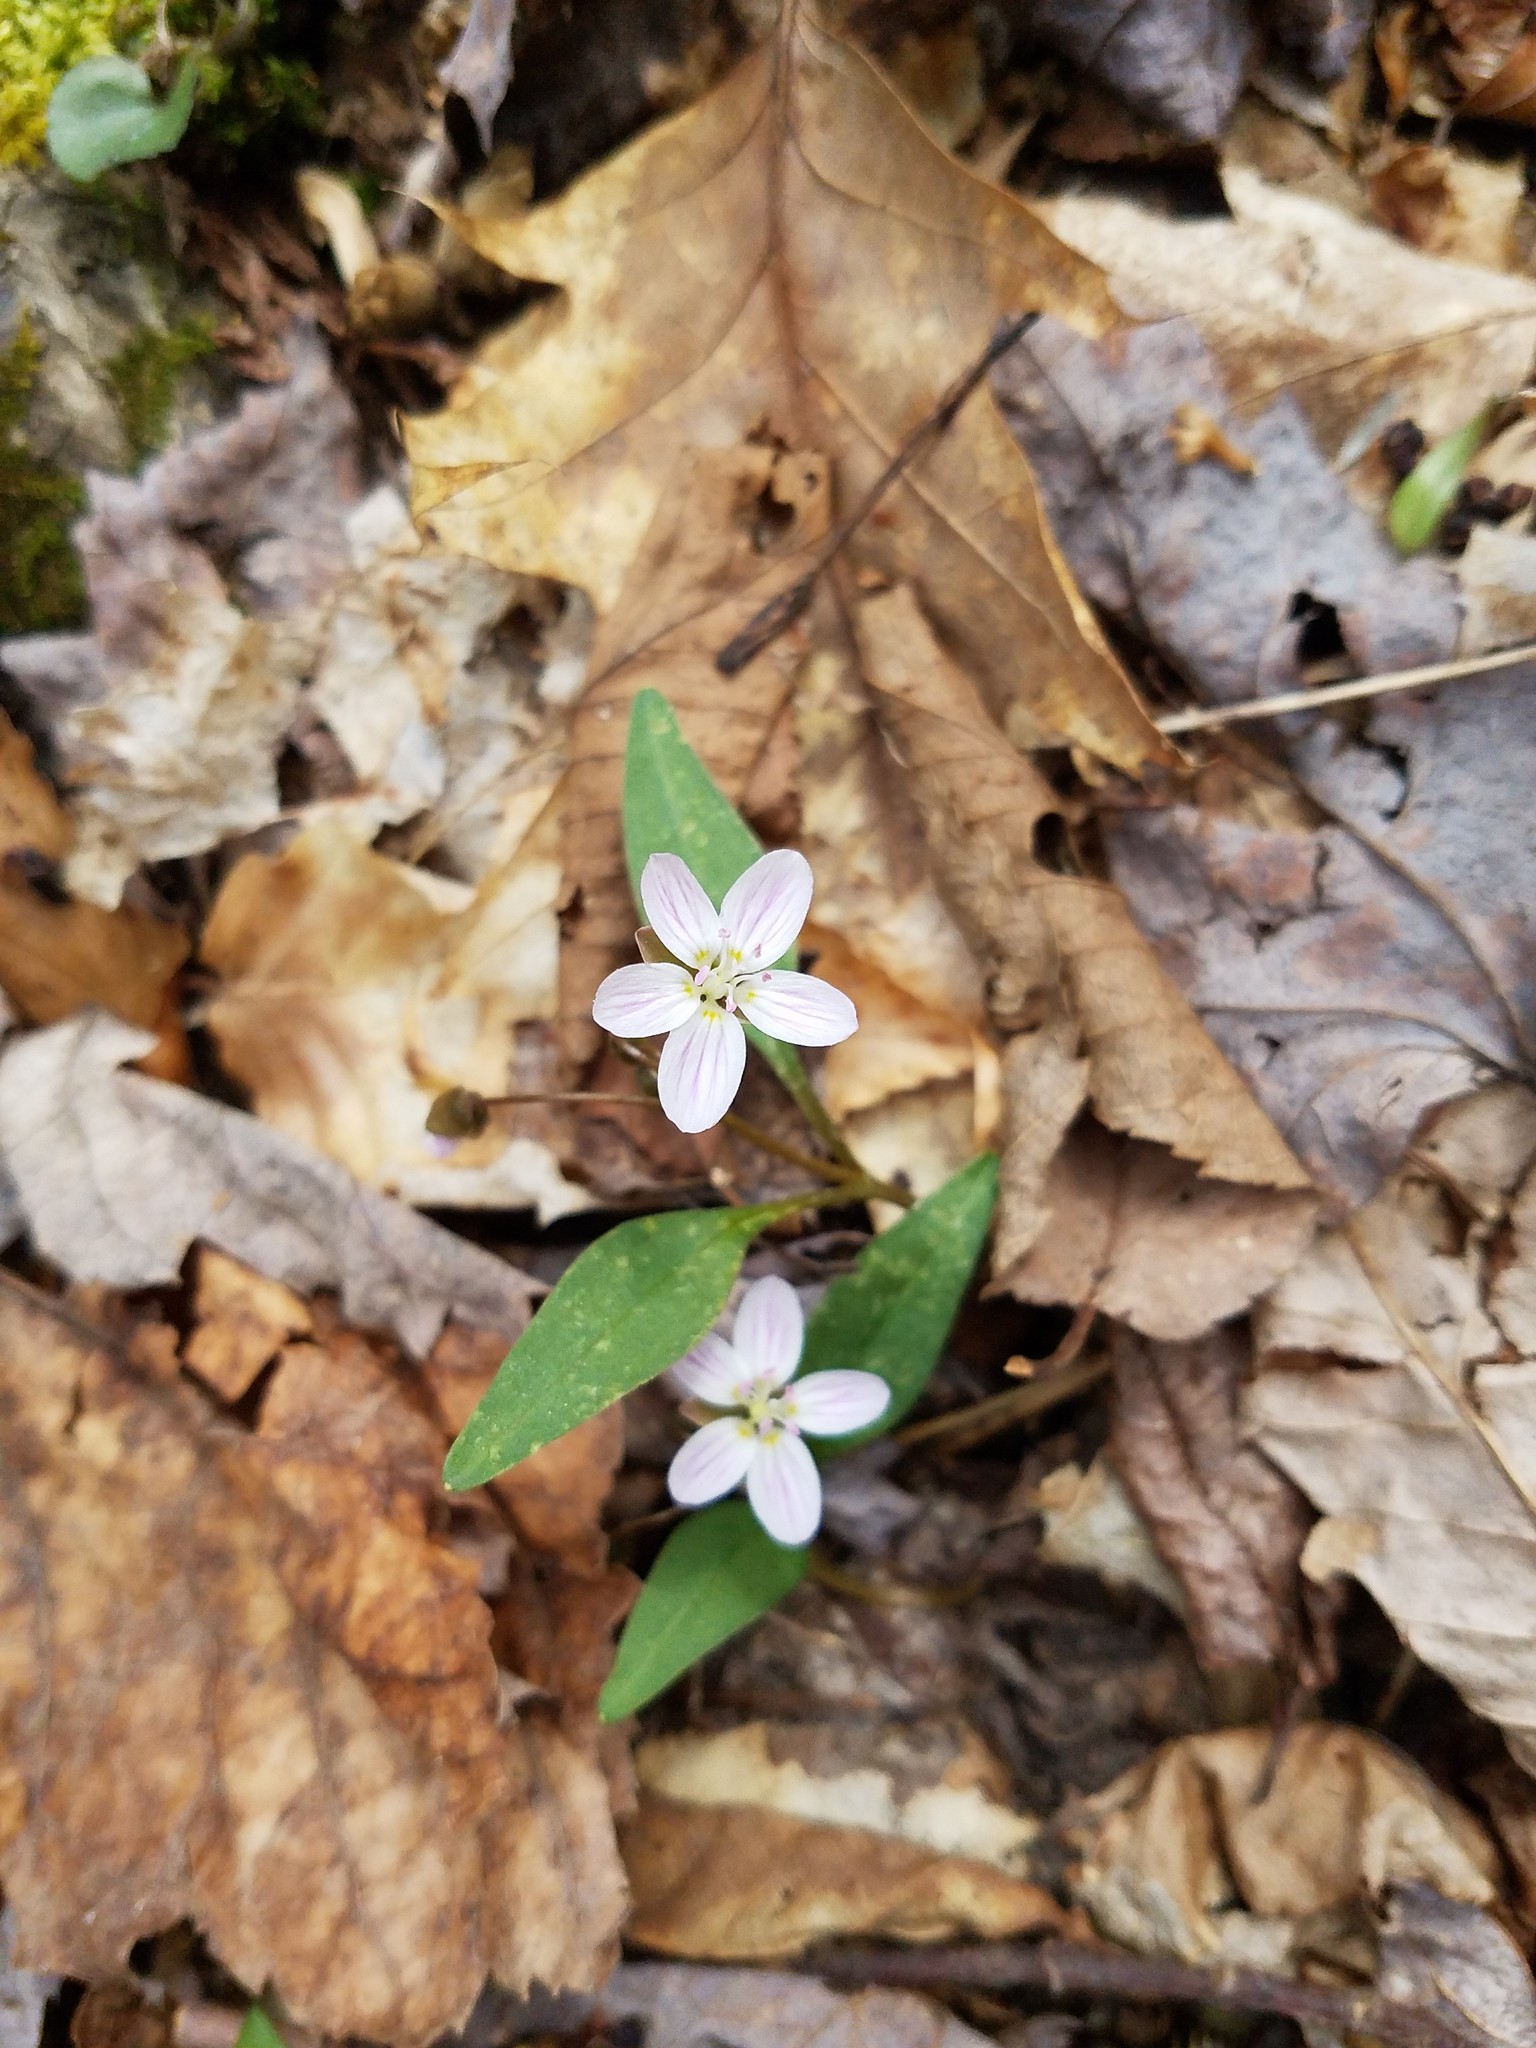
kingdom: Plantae
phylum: Tracheophyta
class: Magnoliopsida
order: Caryophyllales
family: Montiaceae
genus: Claytonia
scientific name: Claytonia caroliniana
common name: Carolina spring beauty
